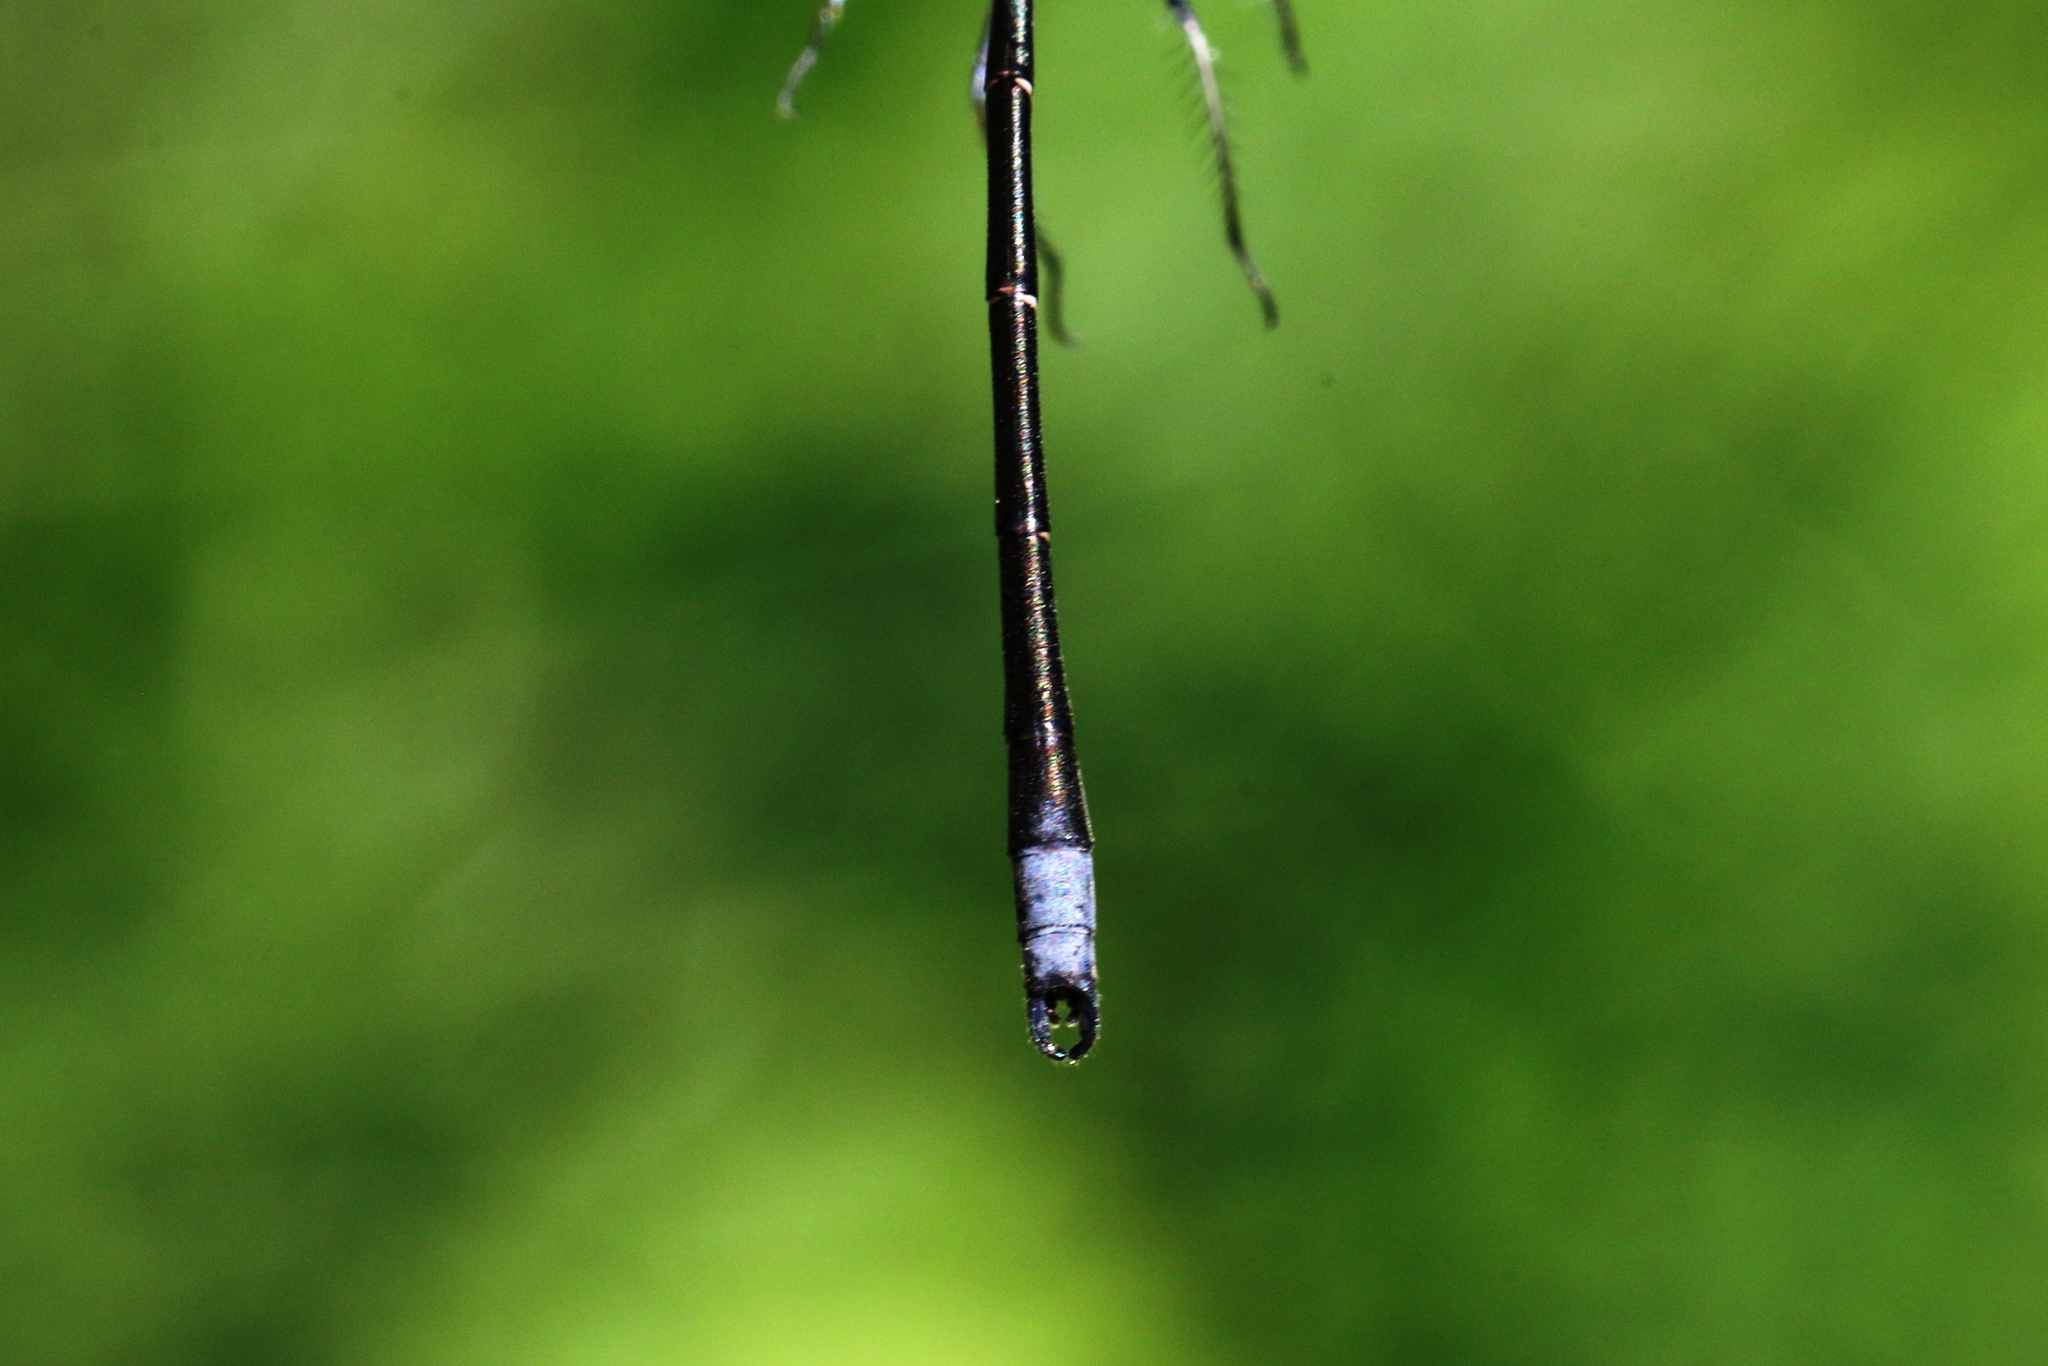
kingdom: Animalia
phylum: Arthropoda
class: Insecta
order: Odonata
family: Lestidae
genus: Lestes
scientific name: Lestes congener
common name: Spotted spreadwing
